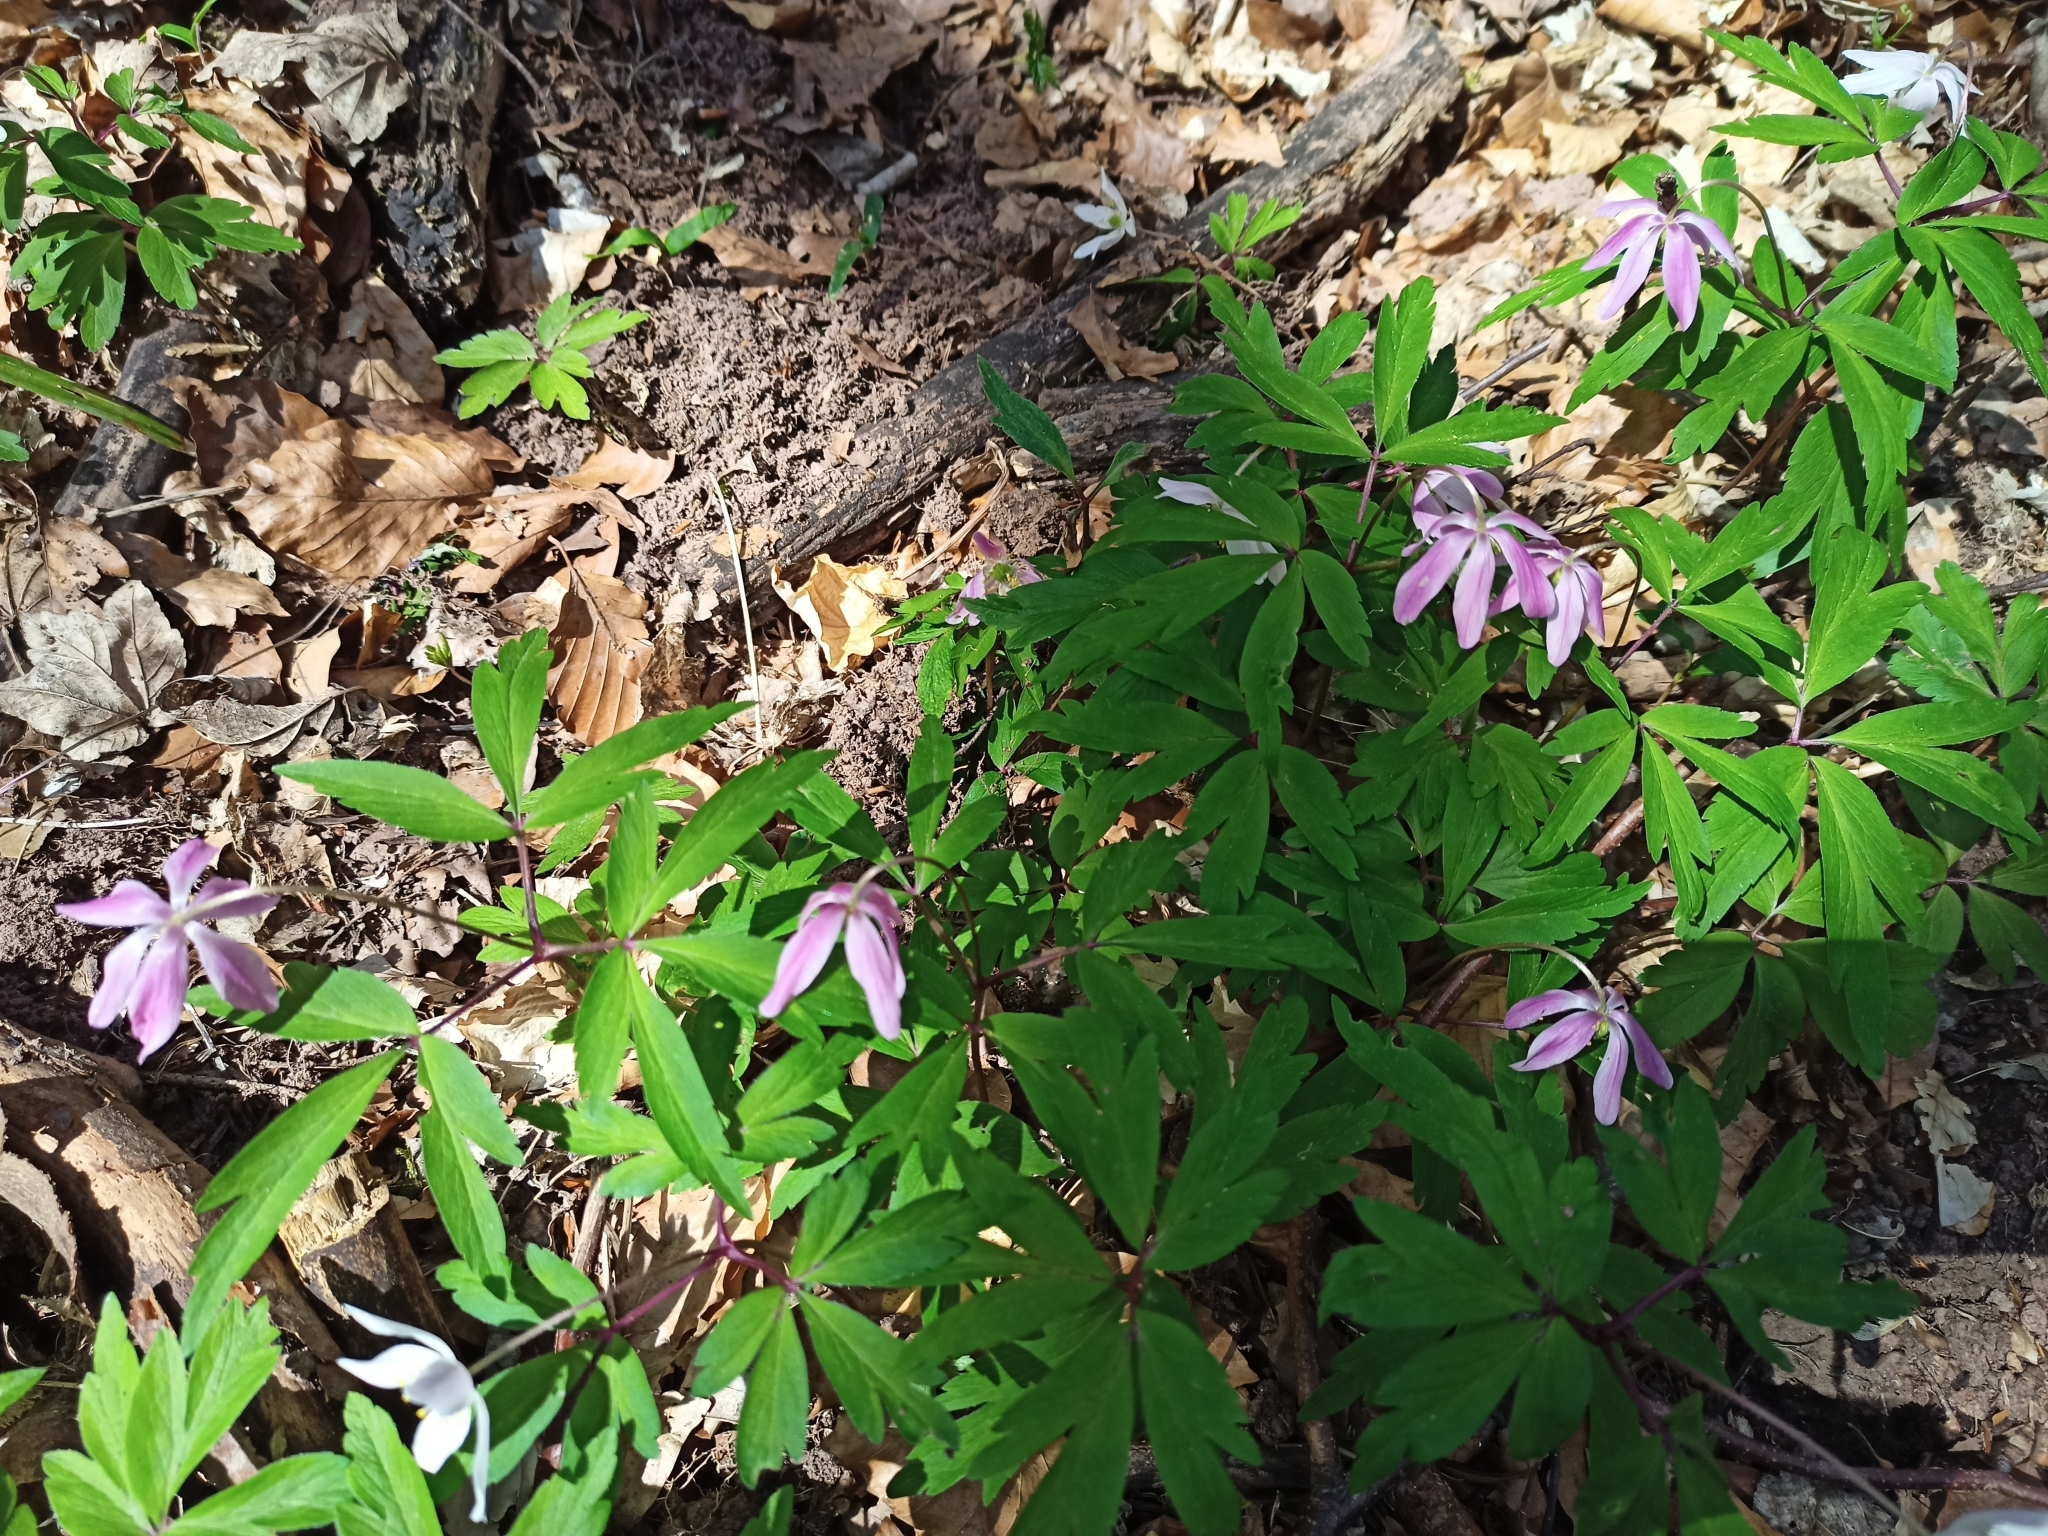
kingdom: Plantae
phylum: Tracheophyta
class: Magnoliopsida
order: Ranunculales
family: Ranunculaceae
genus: Anemone
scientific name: Anemone nemorosa
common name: Wood anemone
